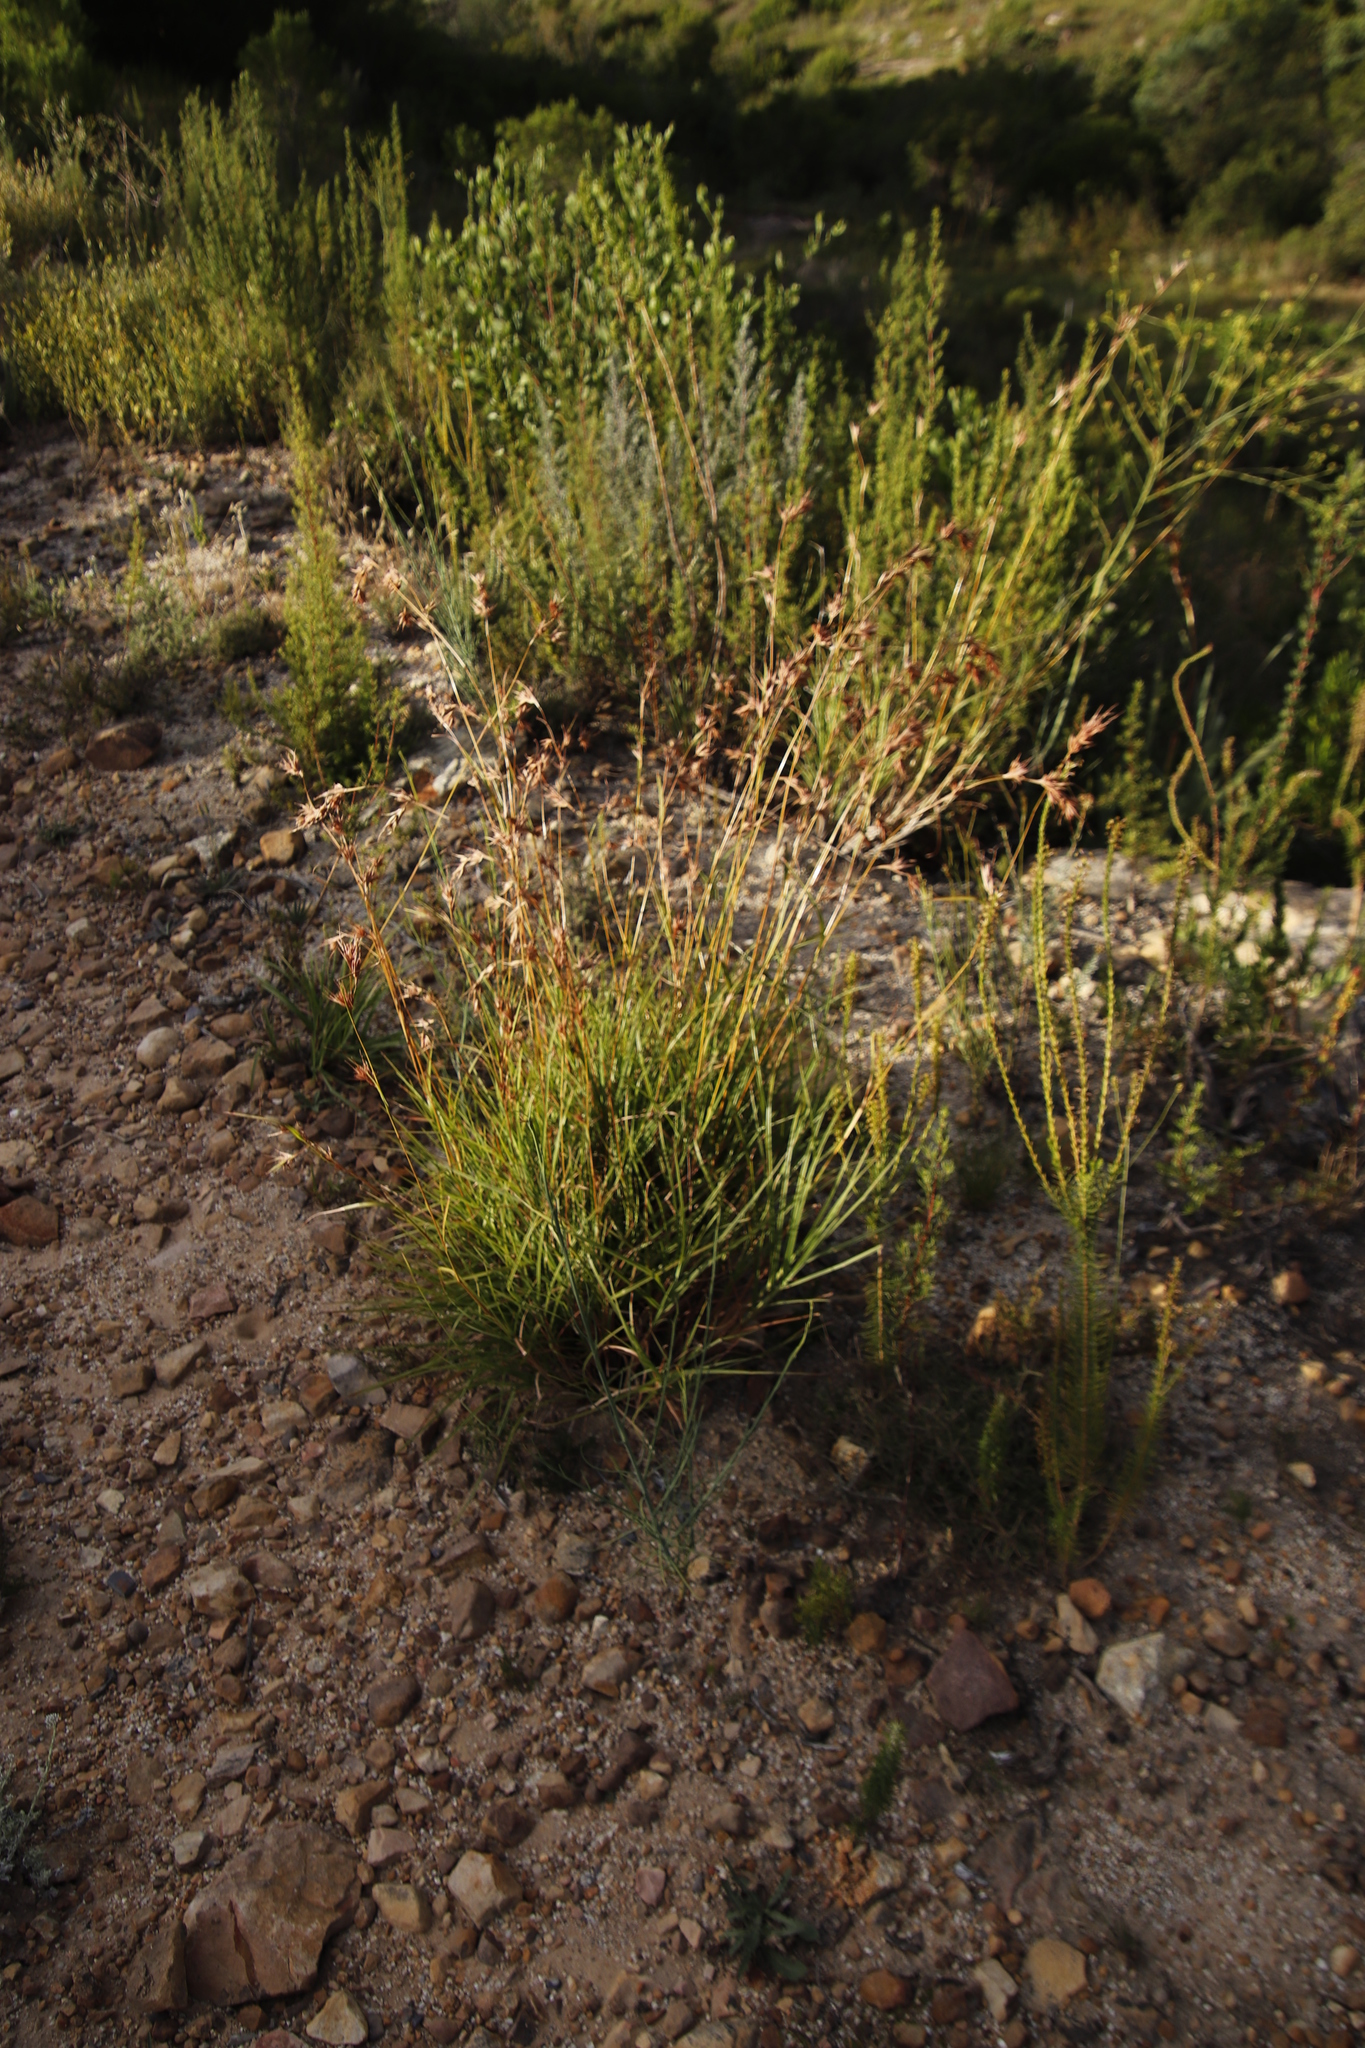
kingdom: Plantae
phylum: Tracheophyta
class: Liliopsida
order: Poales
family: Poaceae
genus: Themeda
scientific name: Themeda triandra
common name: Kangaroo grass
